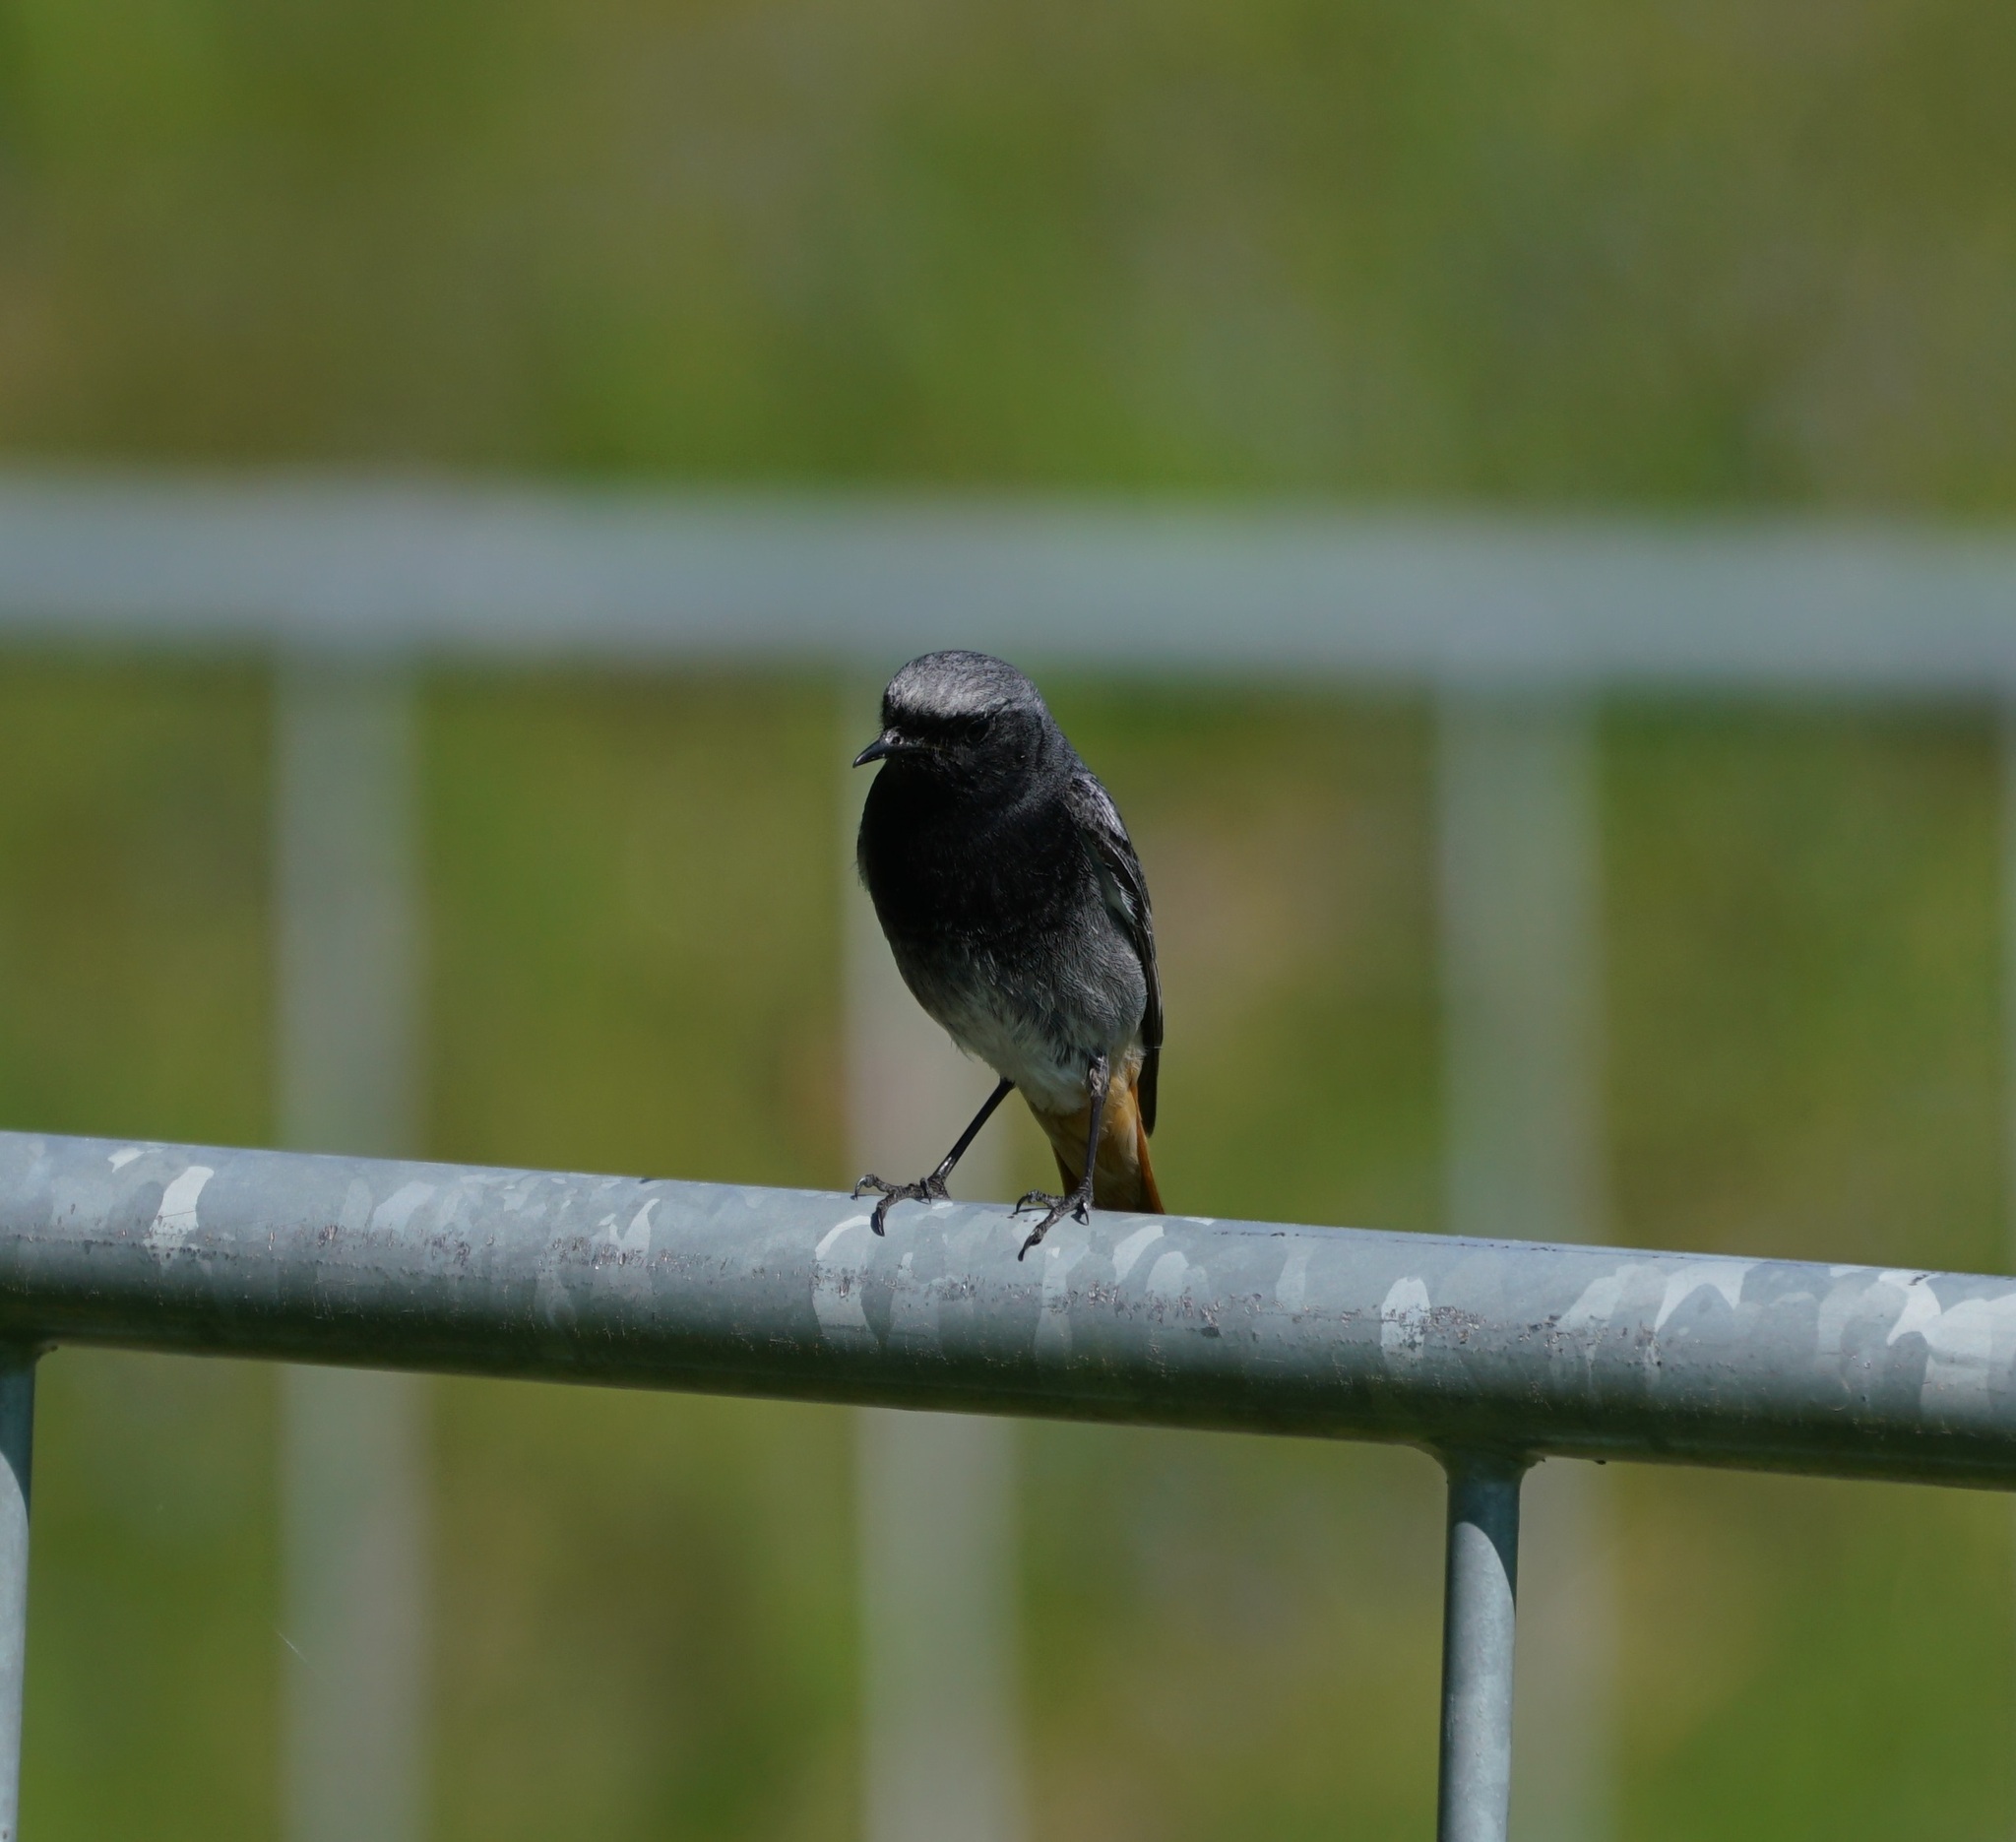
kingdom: Animalia
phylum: Chordata
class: Aves
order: Passeriformes
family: Muscicapidae
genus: Phoenicurus
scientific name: Phoenicurus ochruros
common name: Black redstart
